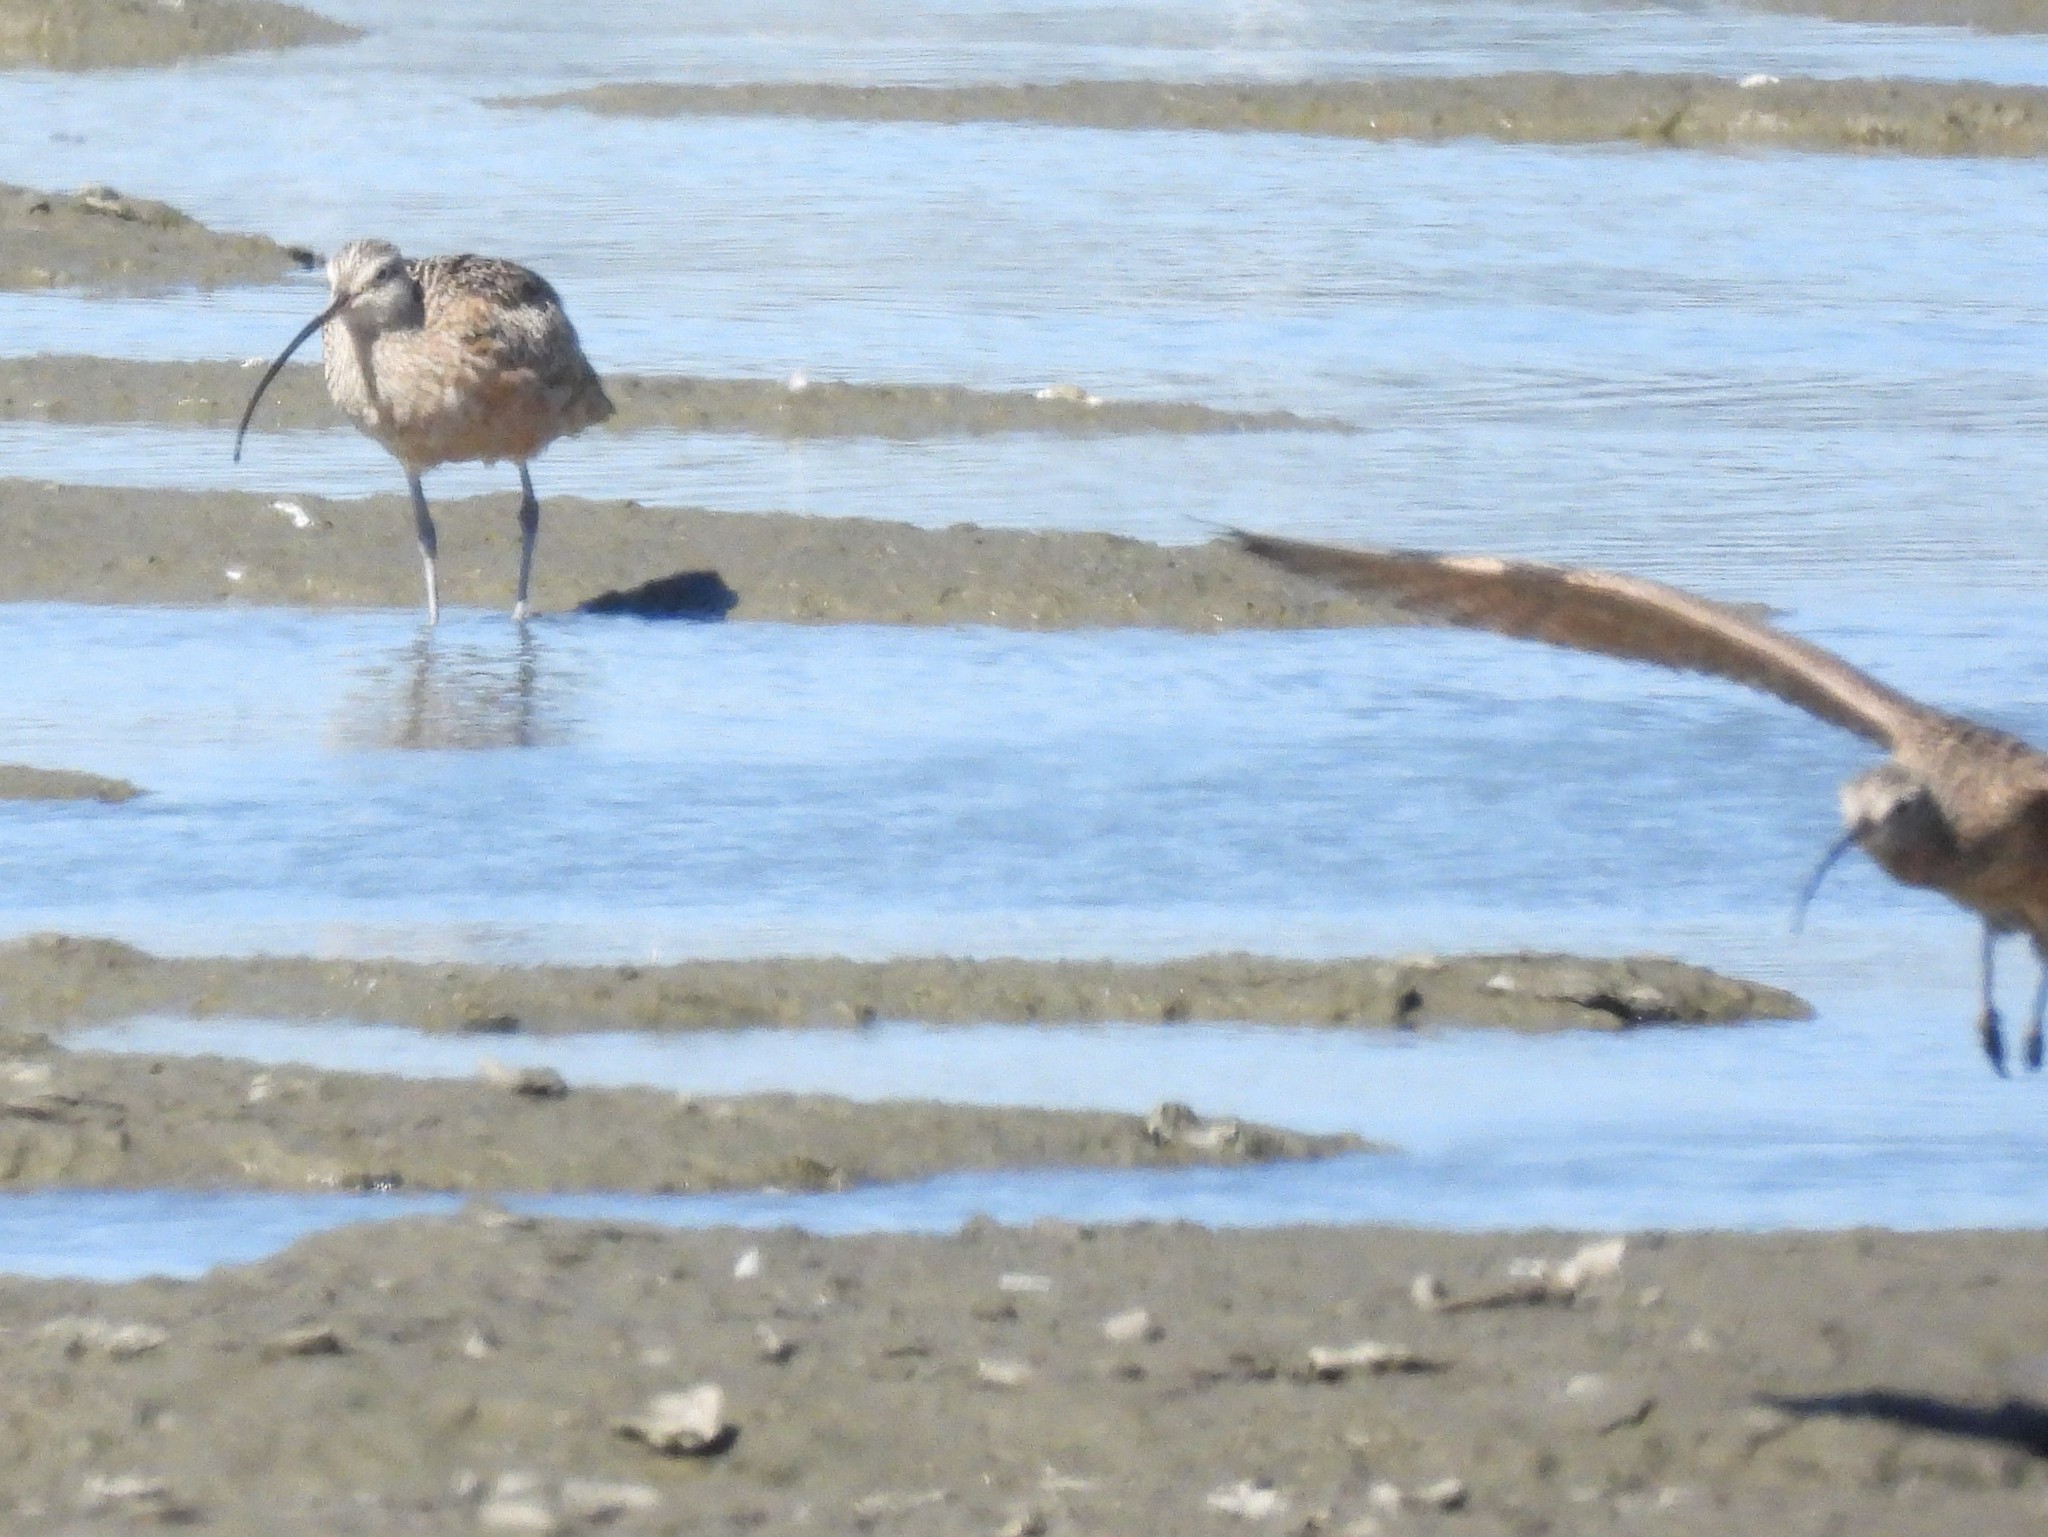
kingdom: Animalia
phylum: Chordata
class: Aves
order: Charadriiformes
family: Scolopacidae
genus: Numenius
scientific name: Numenius americanus
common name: Long-billed curlew
